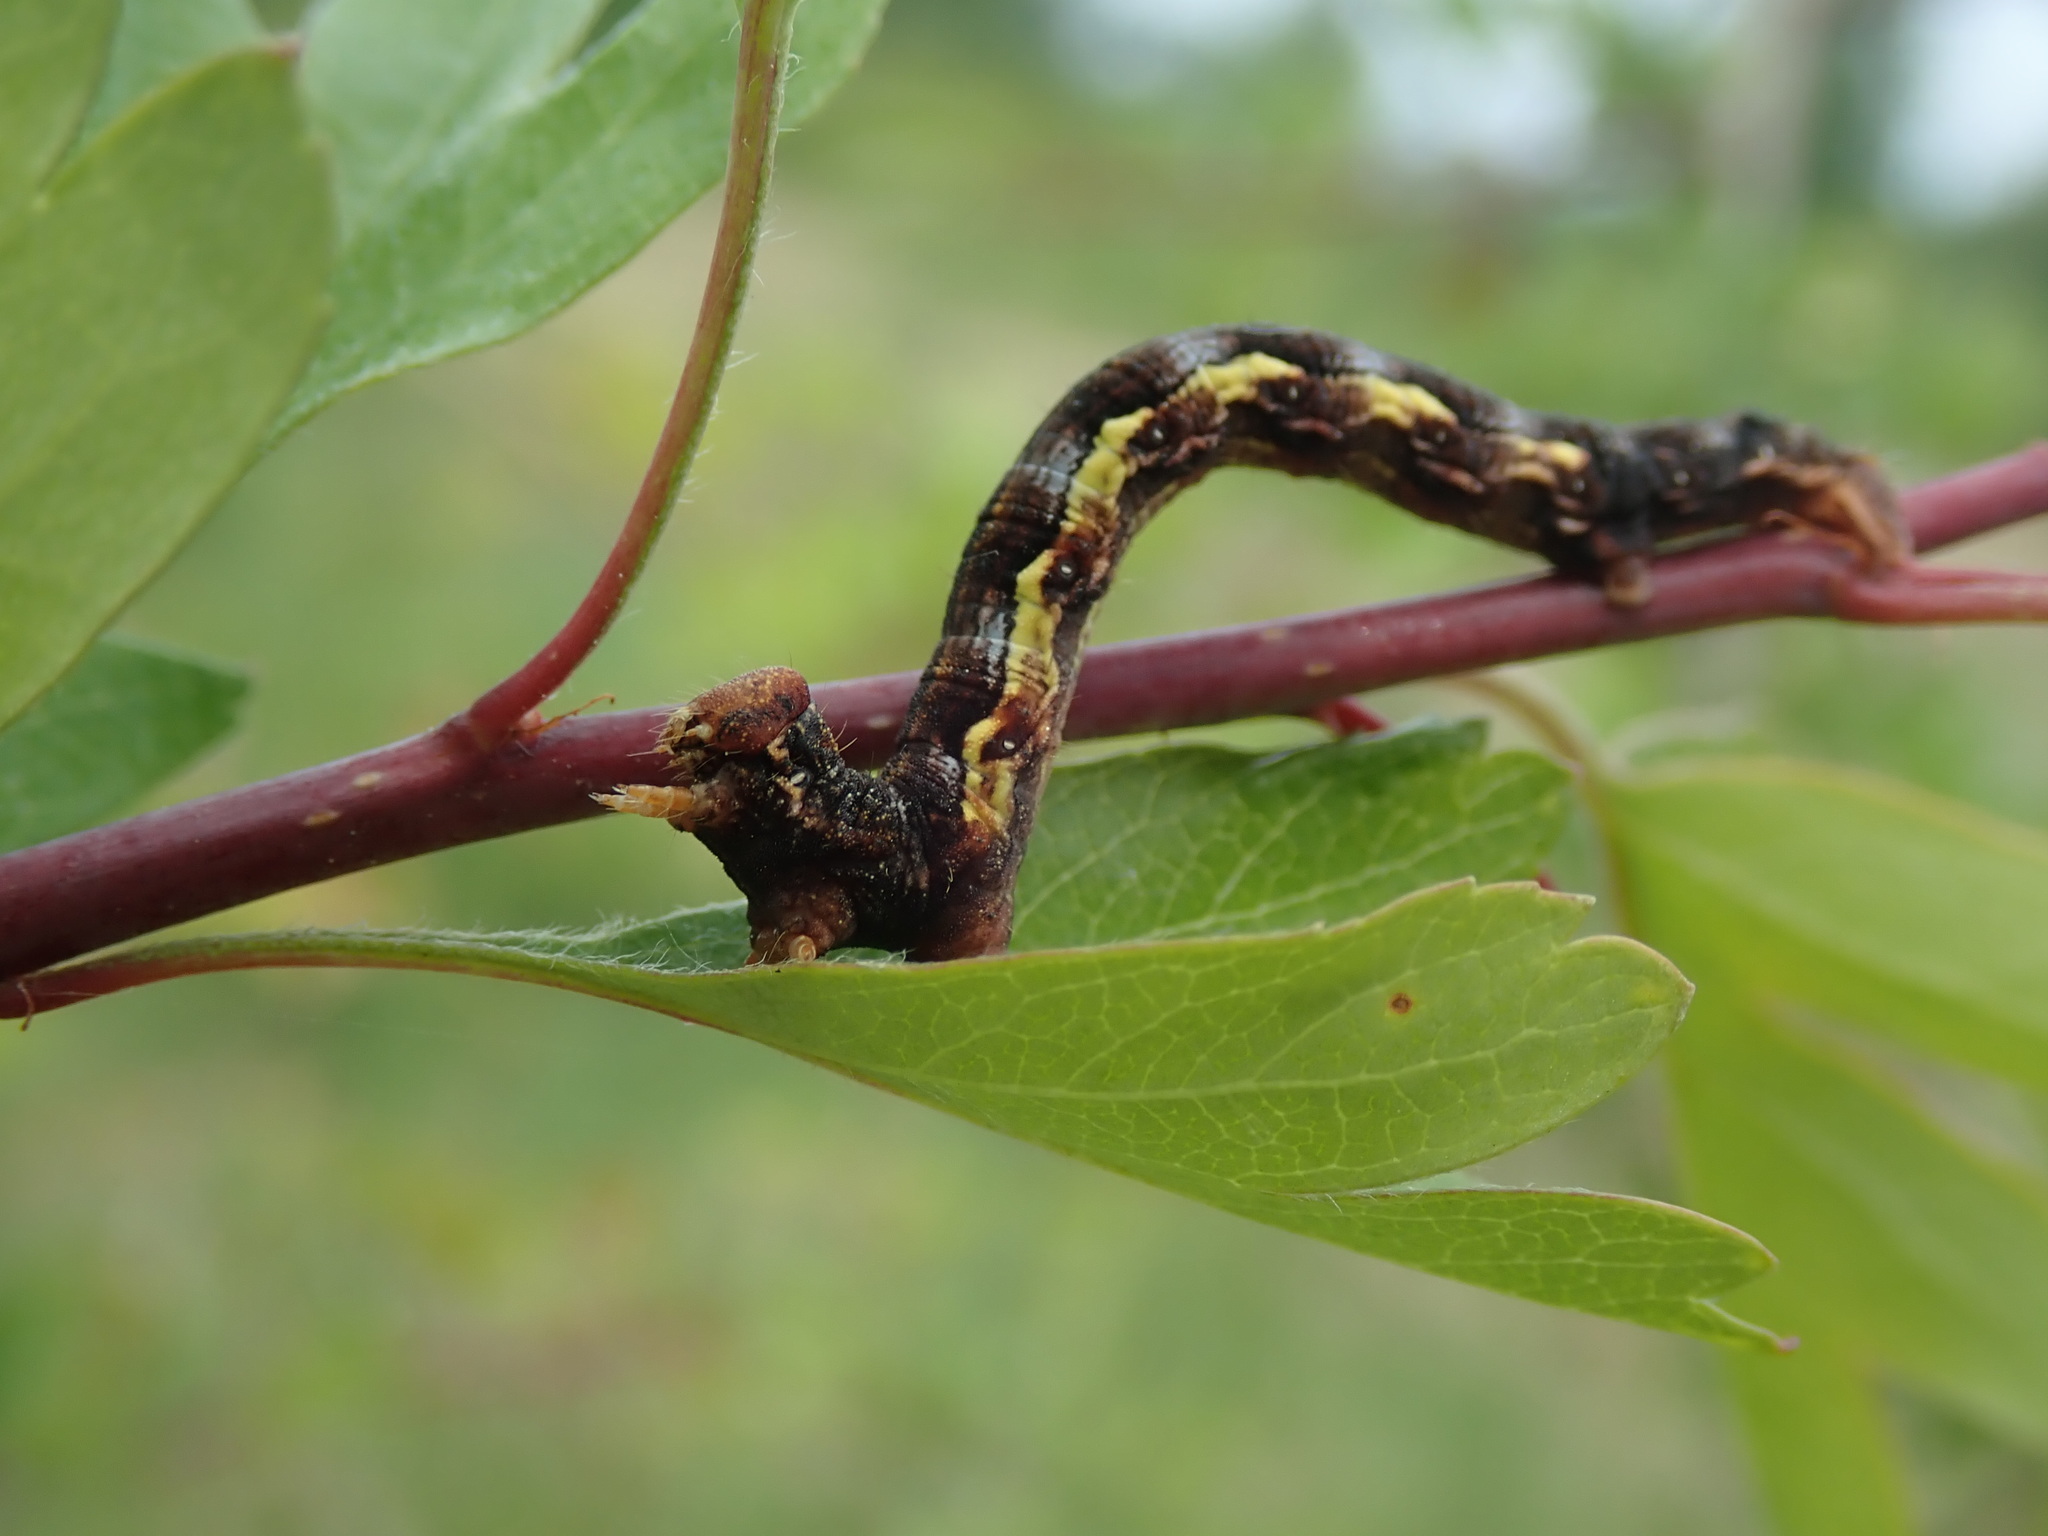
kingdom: Animalia
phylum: Arthropoda
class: Insecta
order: Lepidoptera
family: Geometridae
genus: Erannis
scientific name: Erannis defoliaria
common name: Mottled umber
